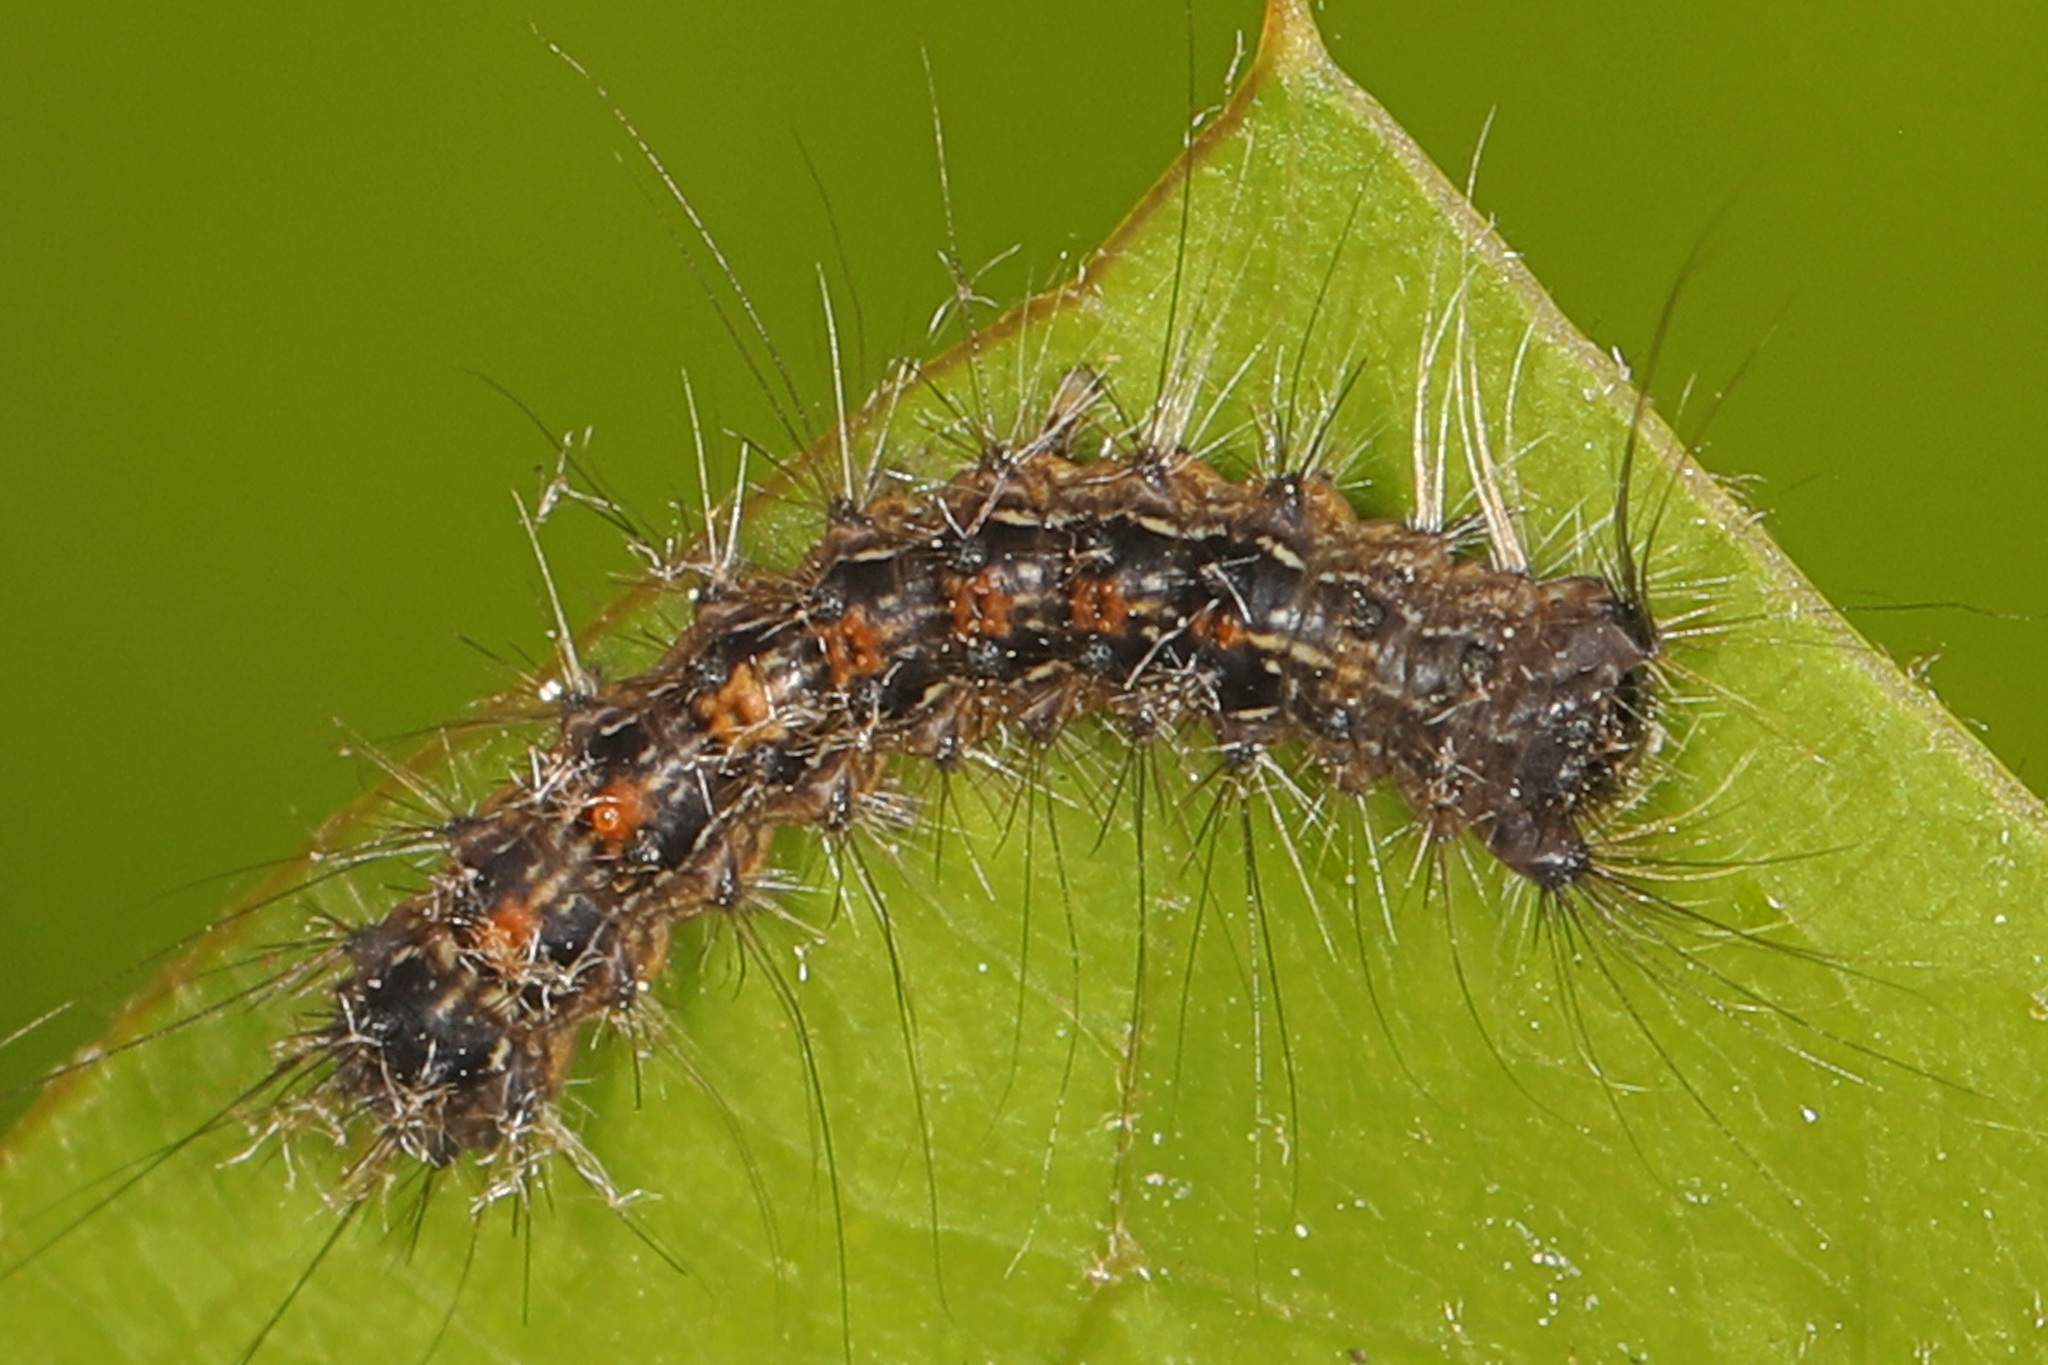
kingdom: Animalia
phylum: Arthropoda
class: Insecta
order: Lepidoptera
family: Erebidae
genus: Lymantria
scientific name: Lymantria dispar
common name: Gypsy moth
